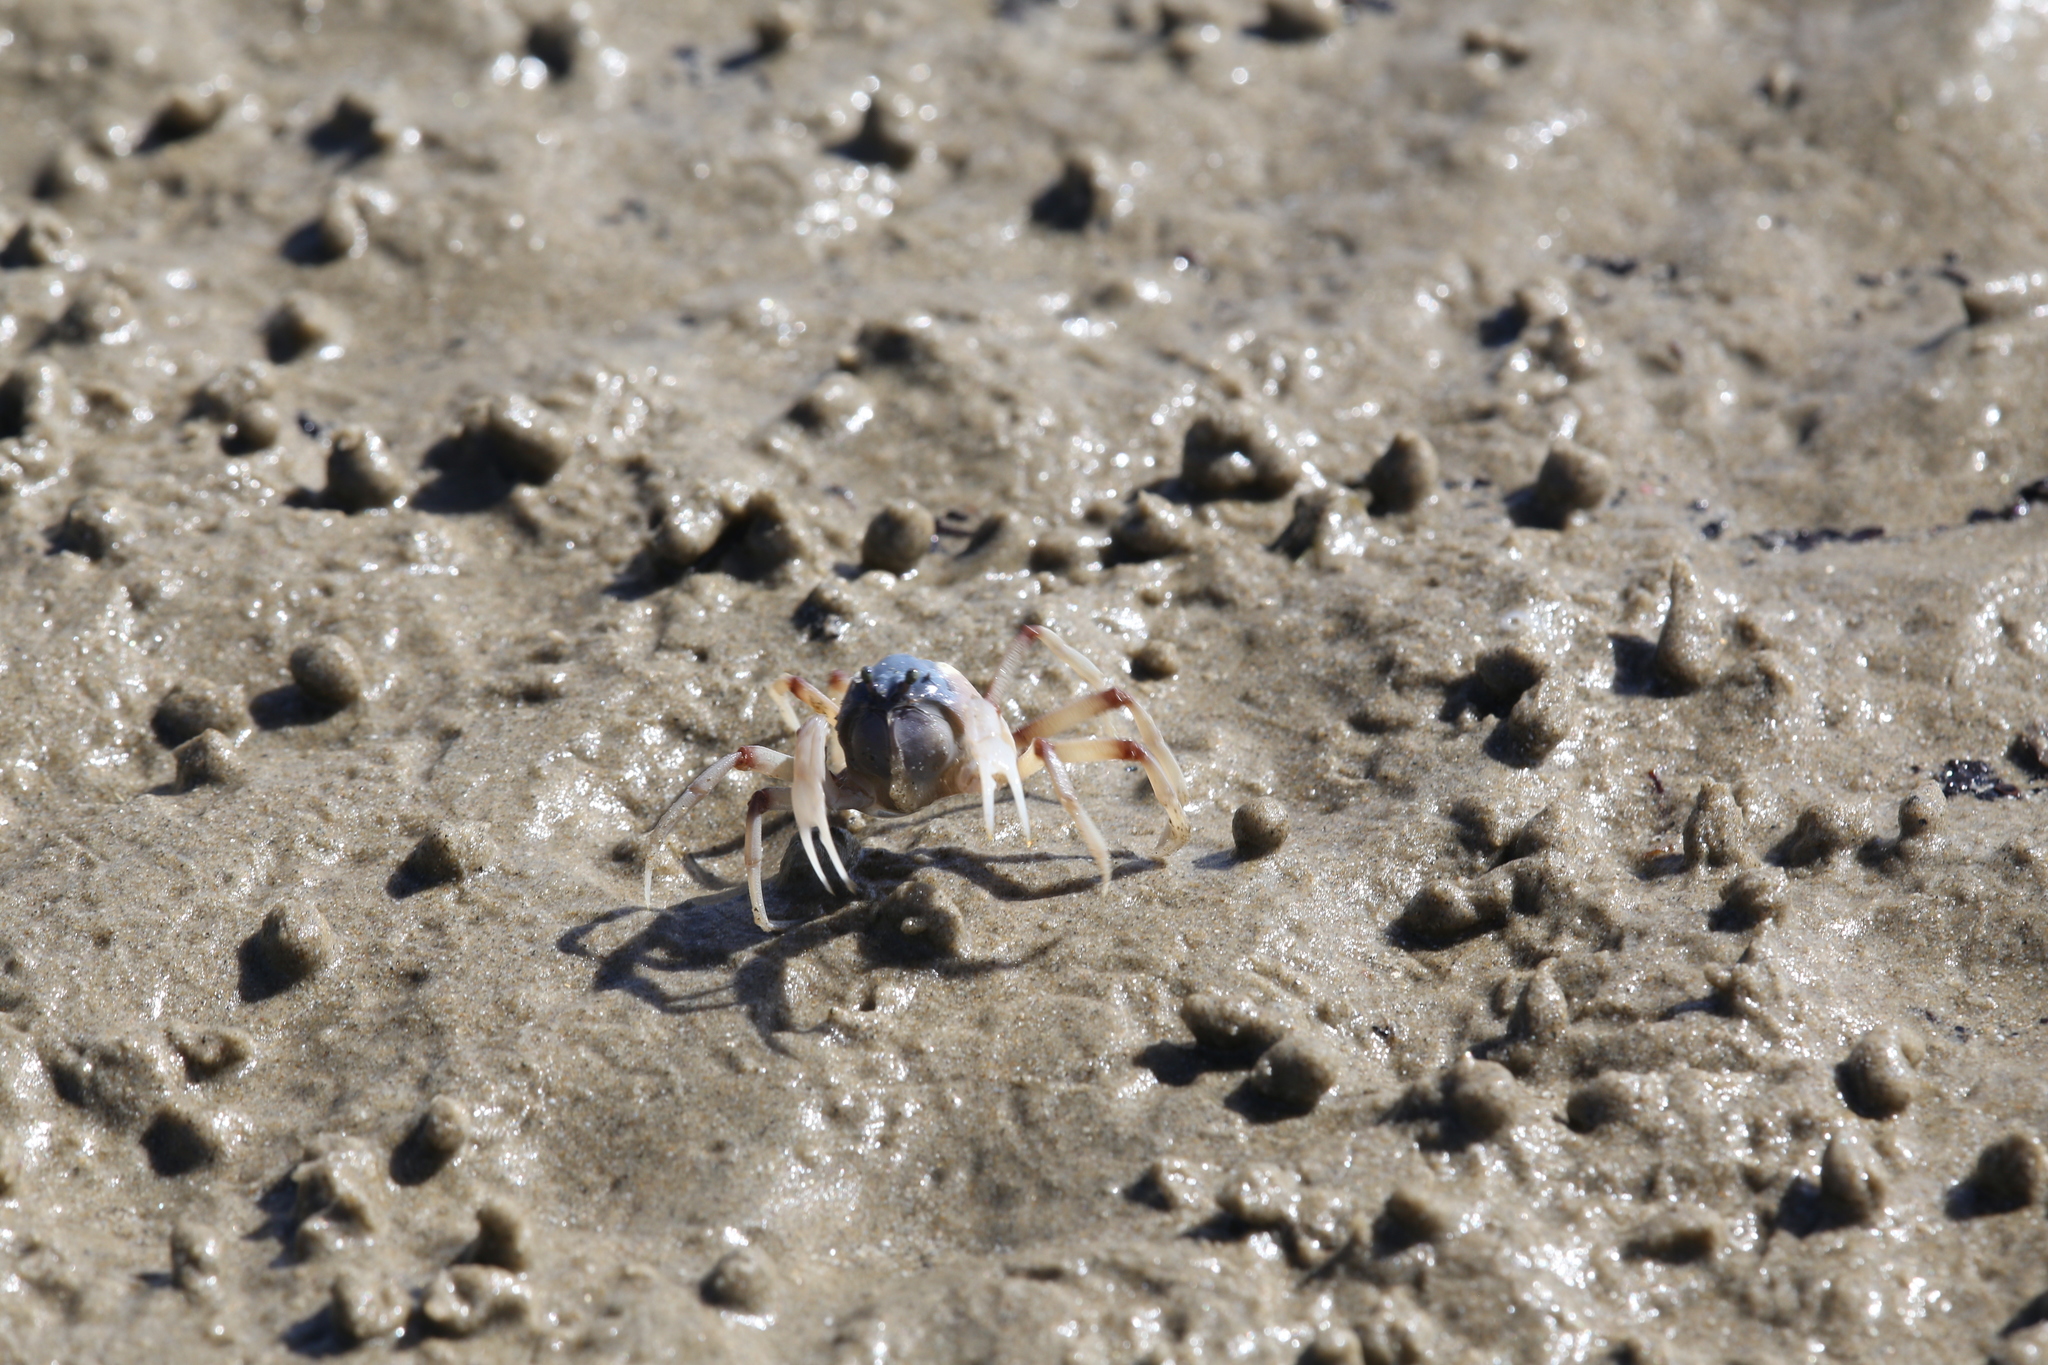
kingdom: Animalia
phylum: Arthropoda
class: Malacostraca
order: Decapoda
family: Mictyridae
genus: Mictyris
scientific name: Mictyris longicarpus
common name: Light-blue soldier crab
